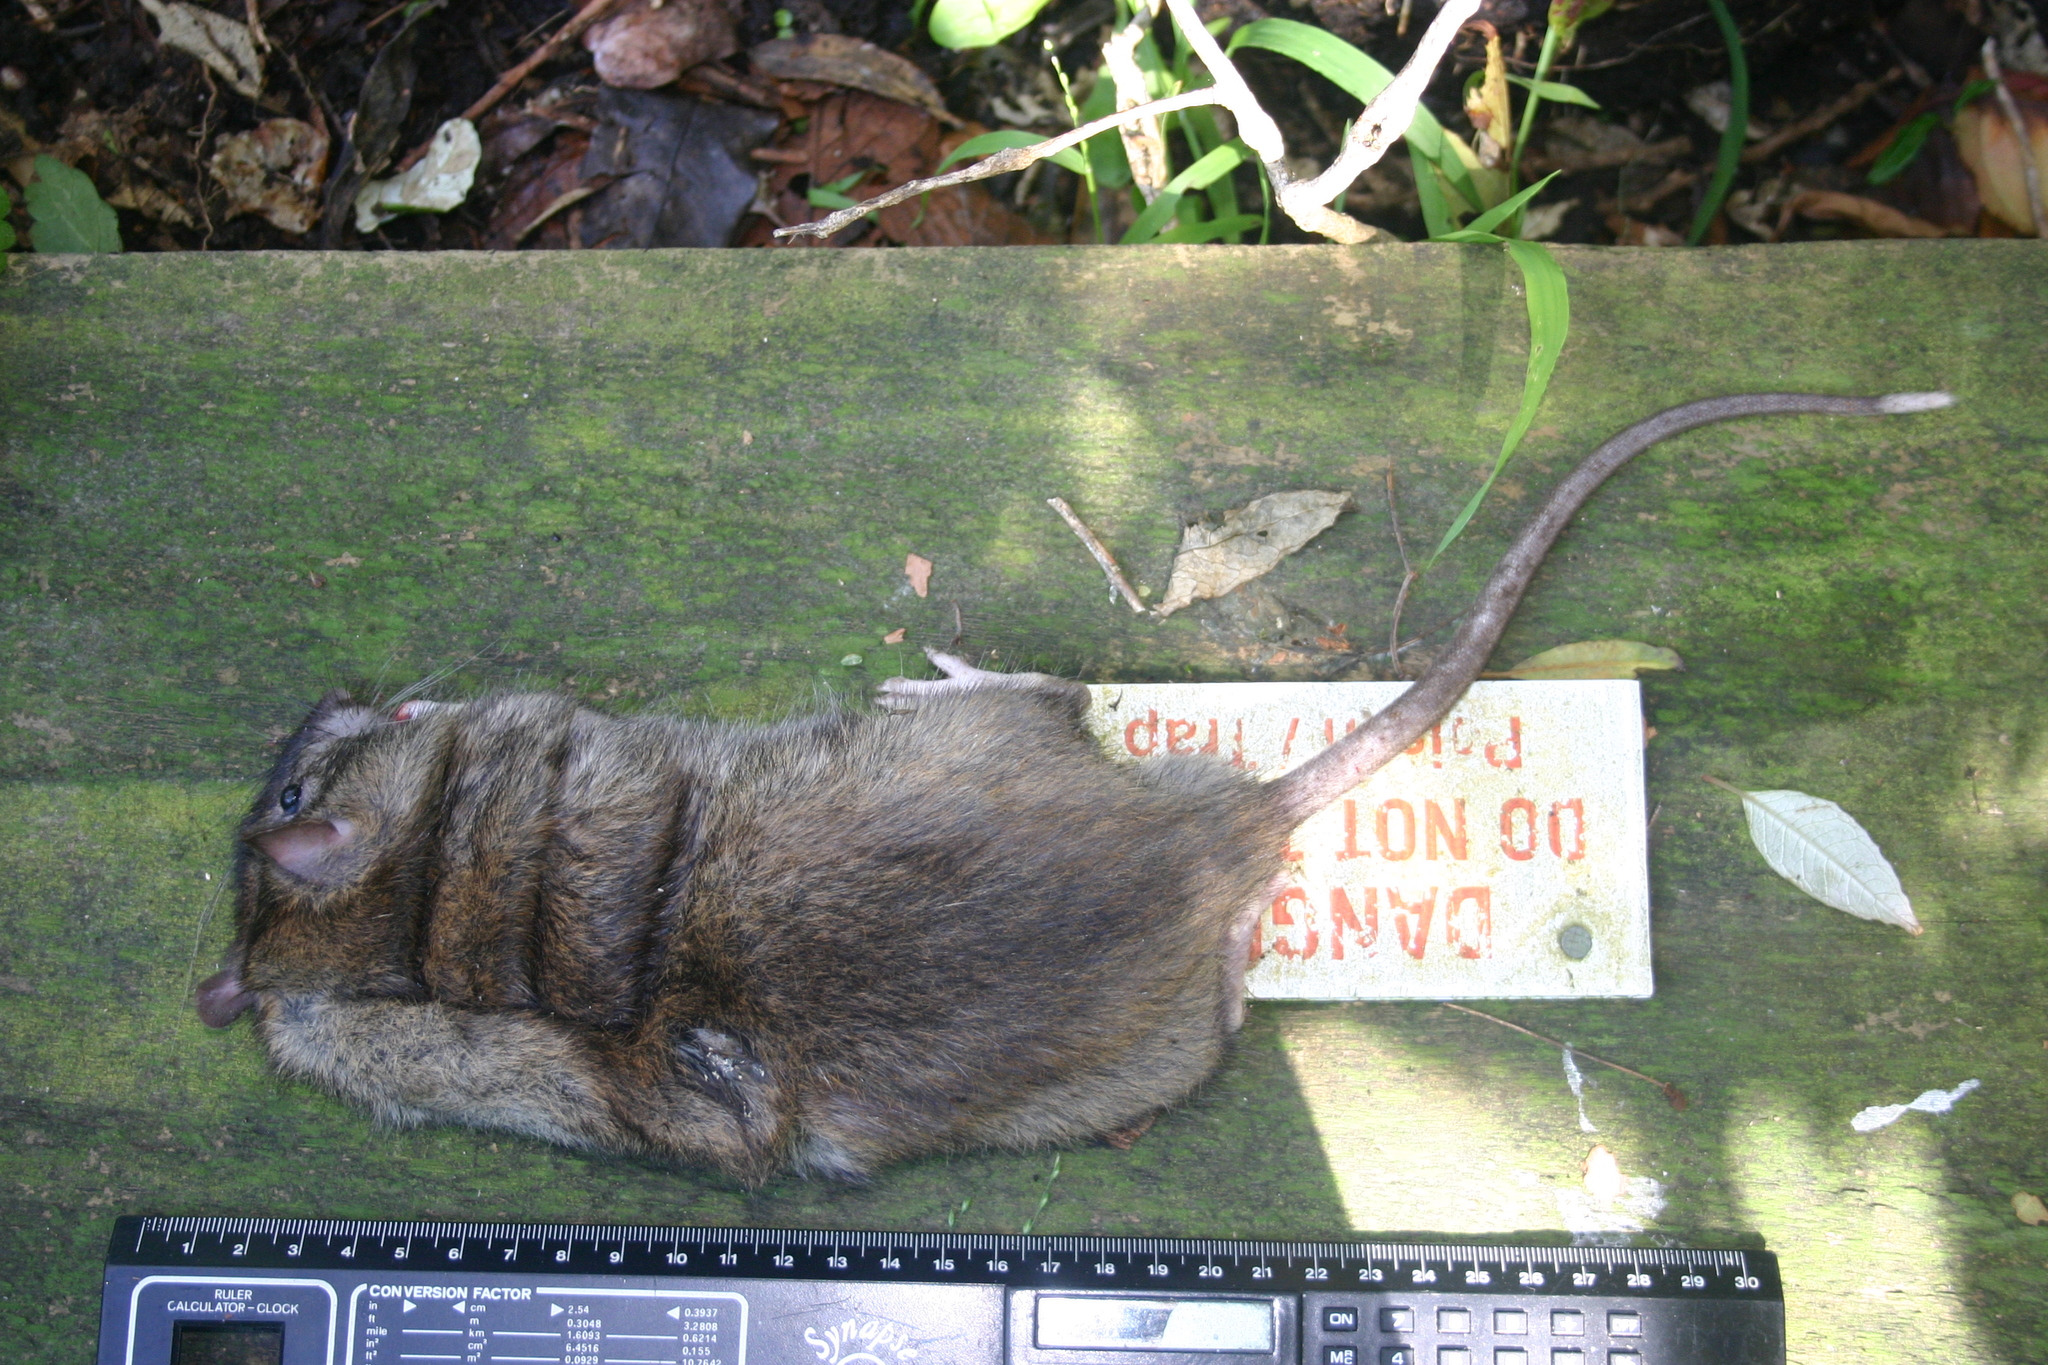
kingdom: Animalia
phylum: Chordata
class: Mammalia
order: Rodentia
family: Muridae
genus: Rattus
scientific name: Rattus norvegicus
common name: Brown rat
